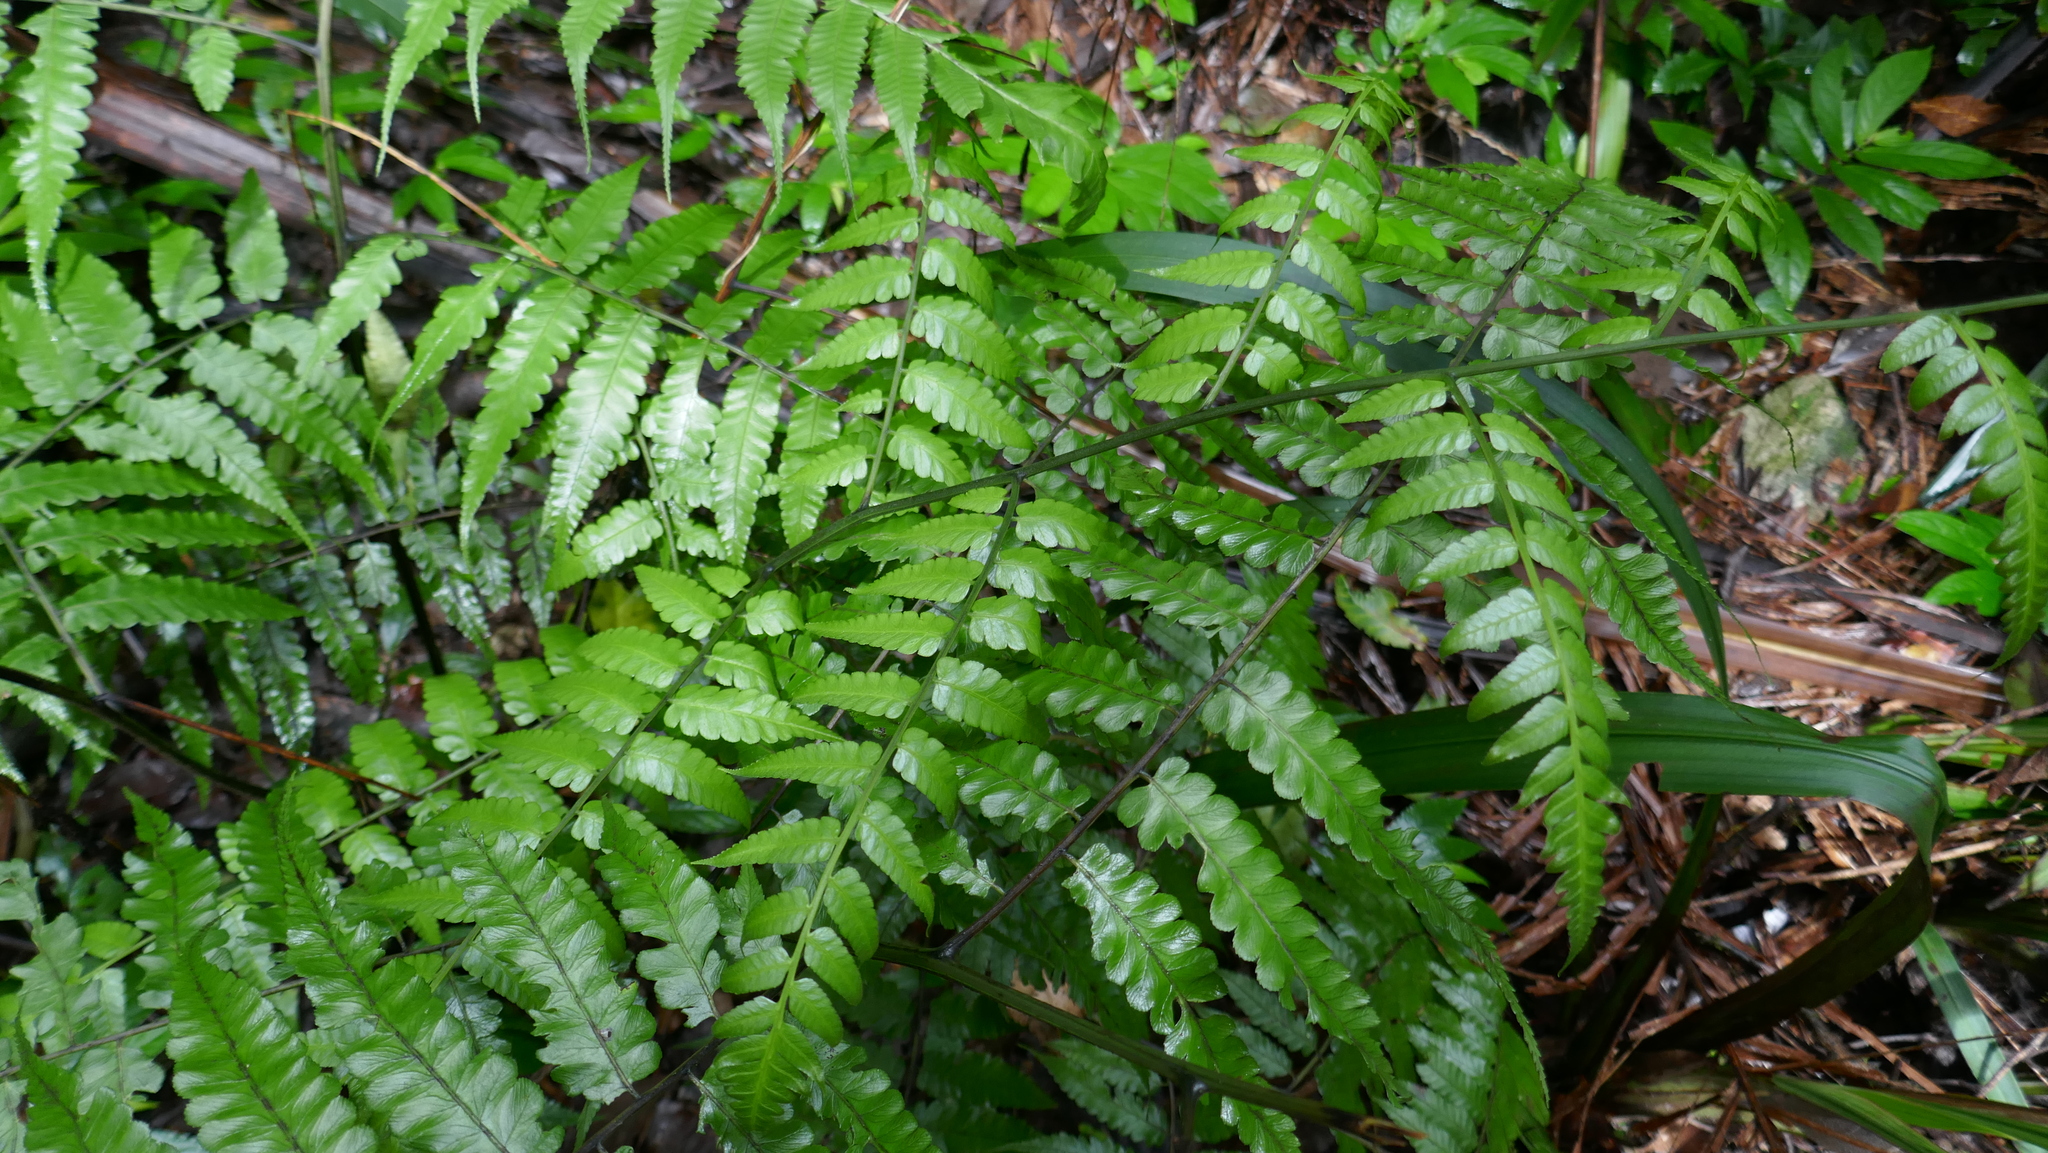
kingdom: Plantae
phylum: Tracheophyta
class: Polypodiopsida
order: Polypodiales
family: Athyriaceae
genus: Diplazium
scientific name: Diplazium dilatatum
